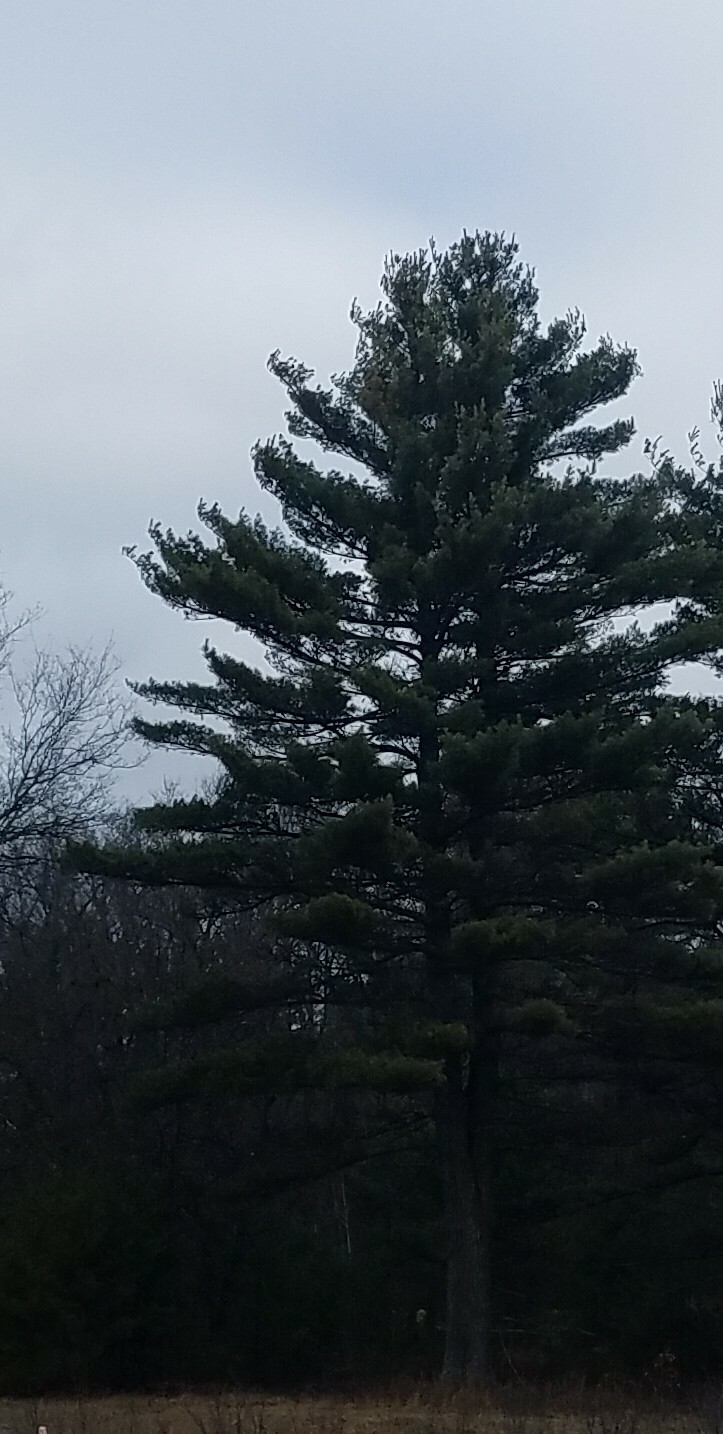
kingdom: Plantae
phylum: Tracheophyta
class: Pinopsida
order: Pinales
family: Pinaceae
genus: Pinus
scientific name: Pinus strobus
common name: Weymouth pine
